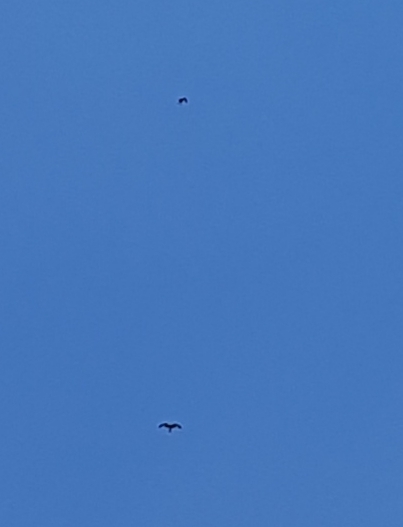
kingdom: Animalia
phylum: Chordata
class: Aves
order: Accipitriformes
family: Accipitridae
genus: Milvus
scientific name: Milvus milvus
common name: Red kite
